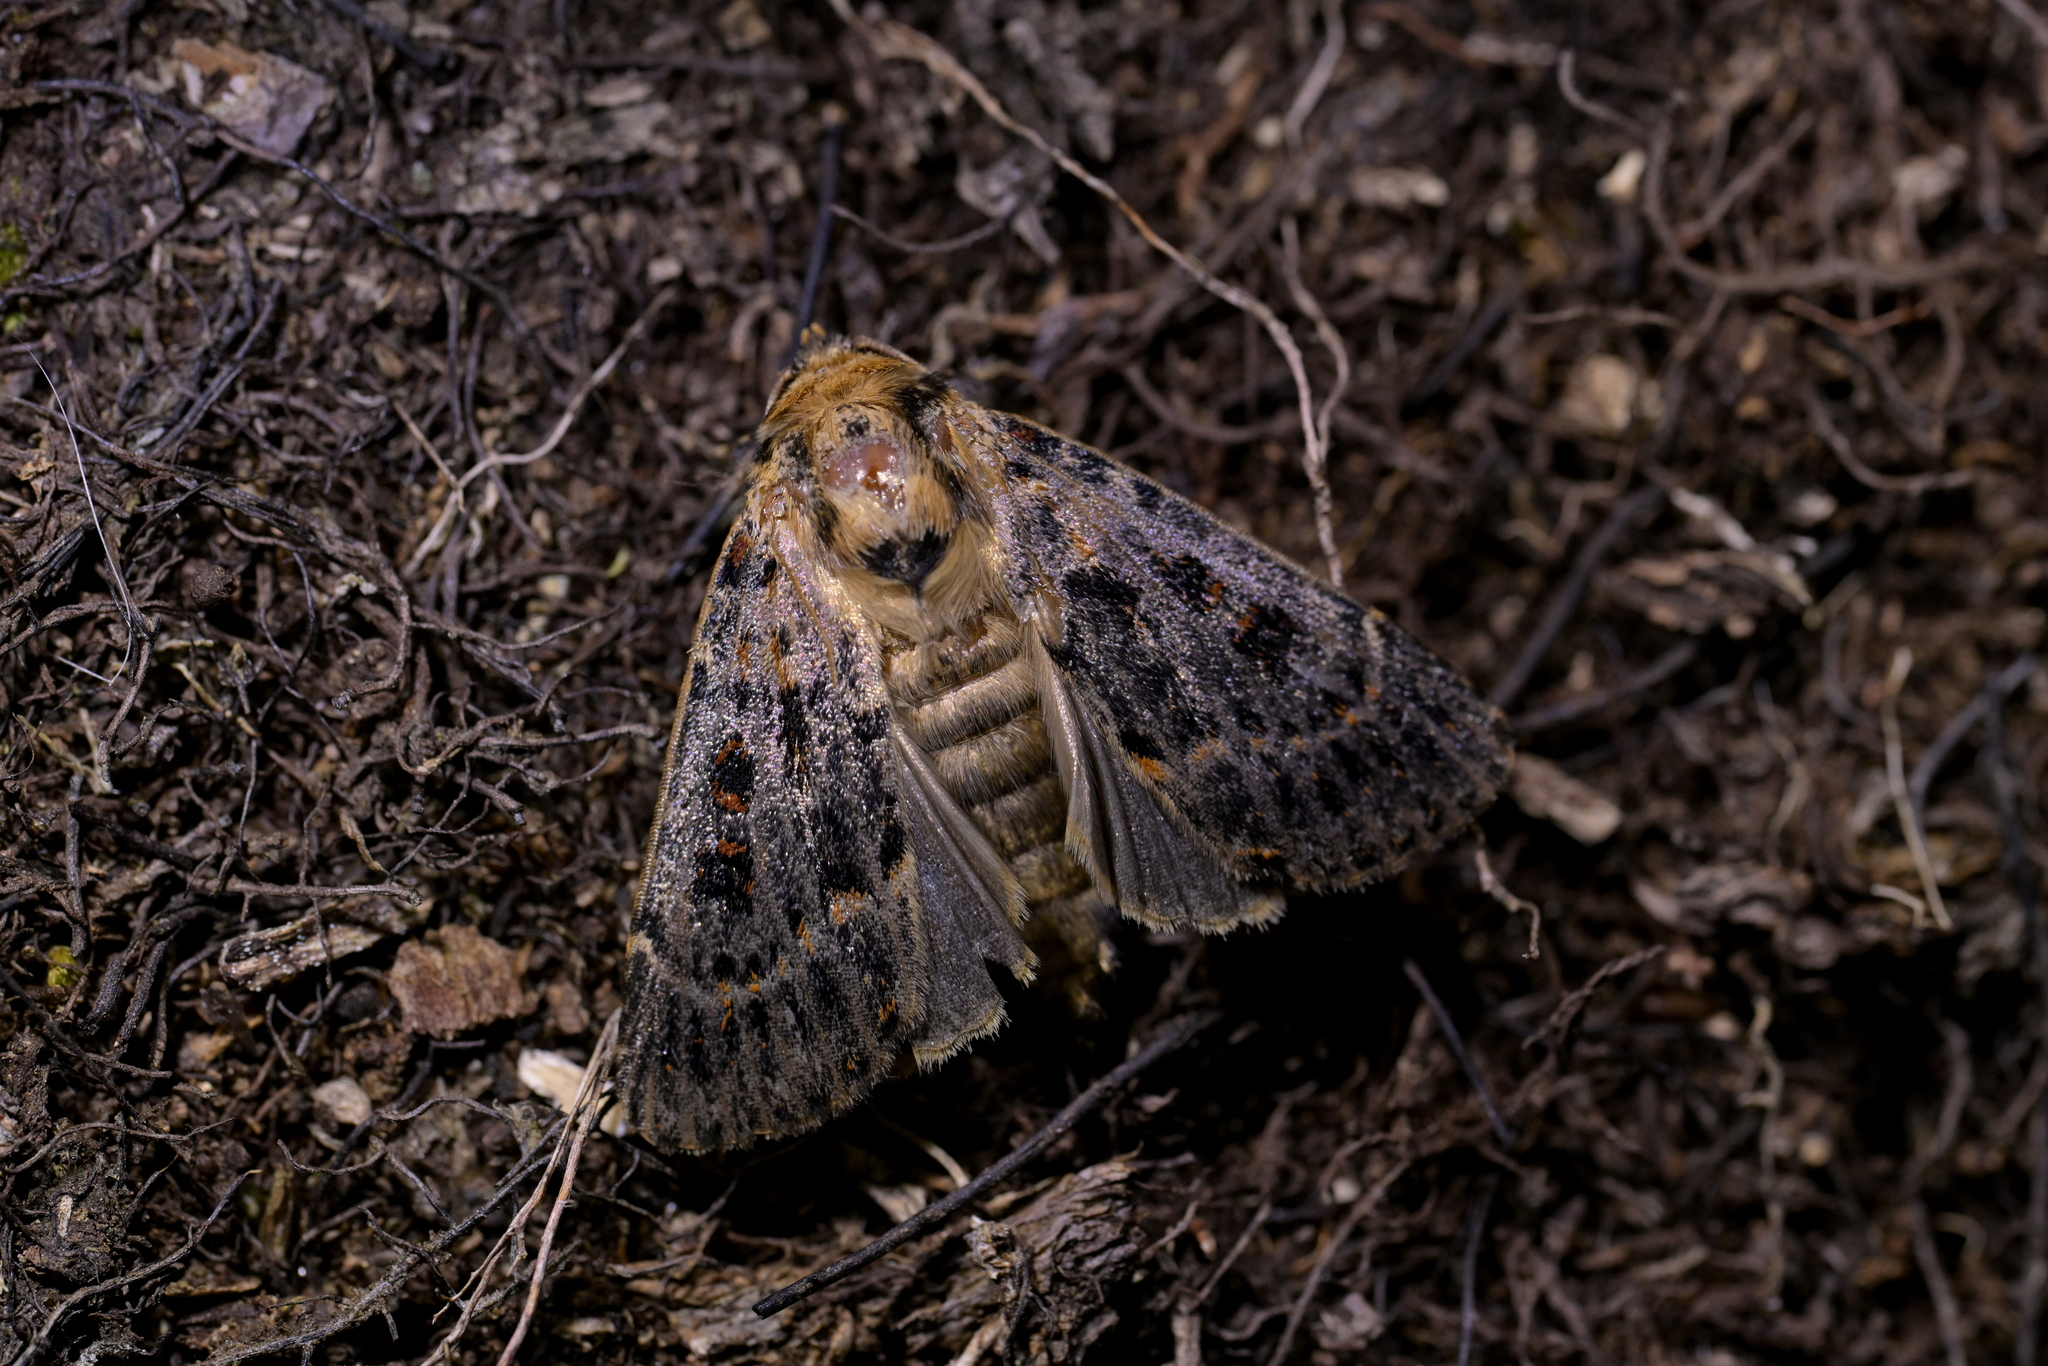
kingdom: Animalia
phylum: Arthropoda
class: Insecta
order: Lepidoptera
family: Noctuidae
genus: Proteuxoa
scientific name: Proteuxoa sanguinipuncta
